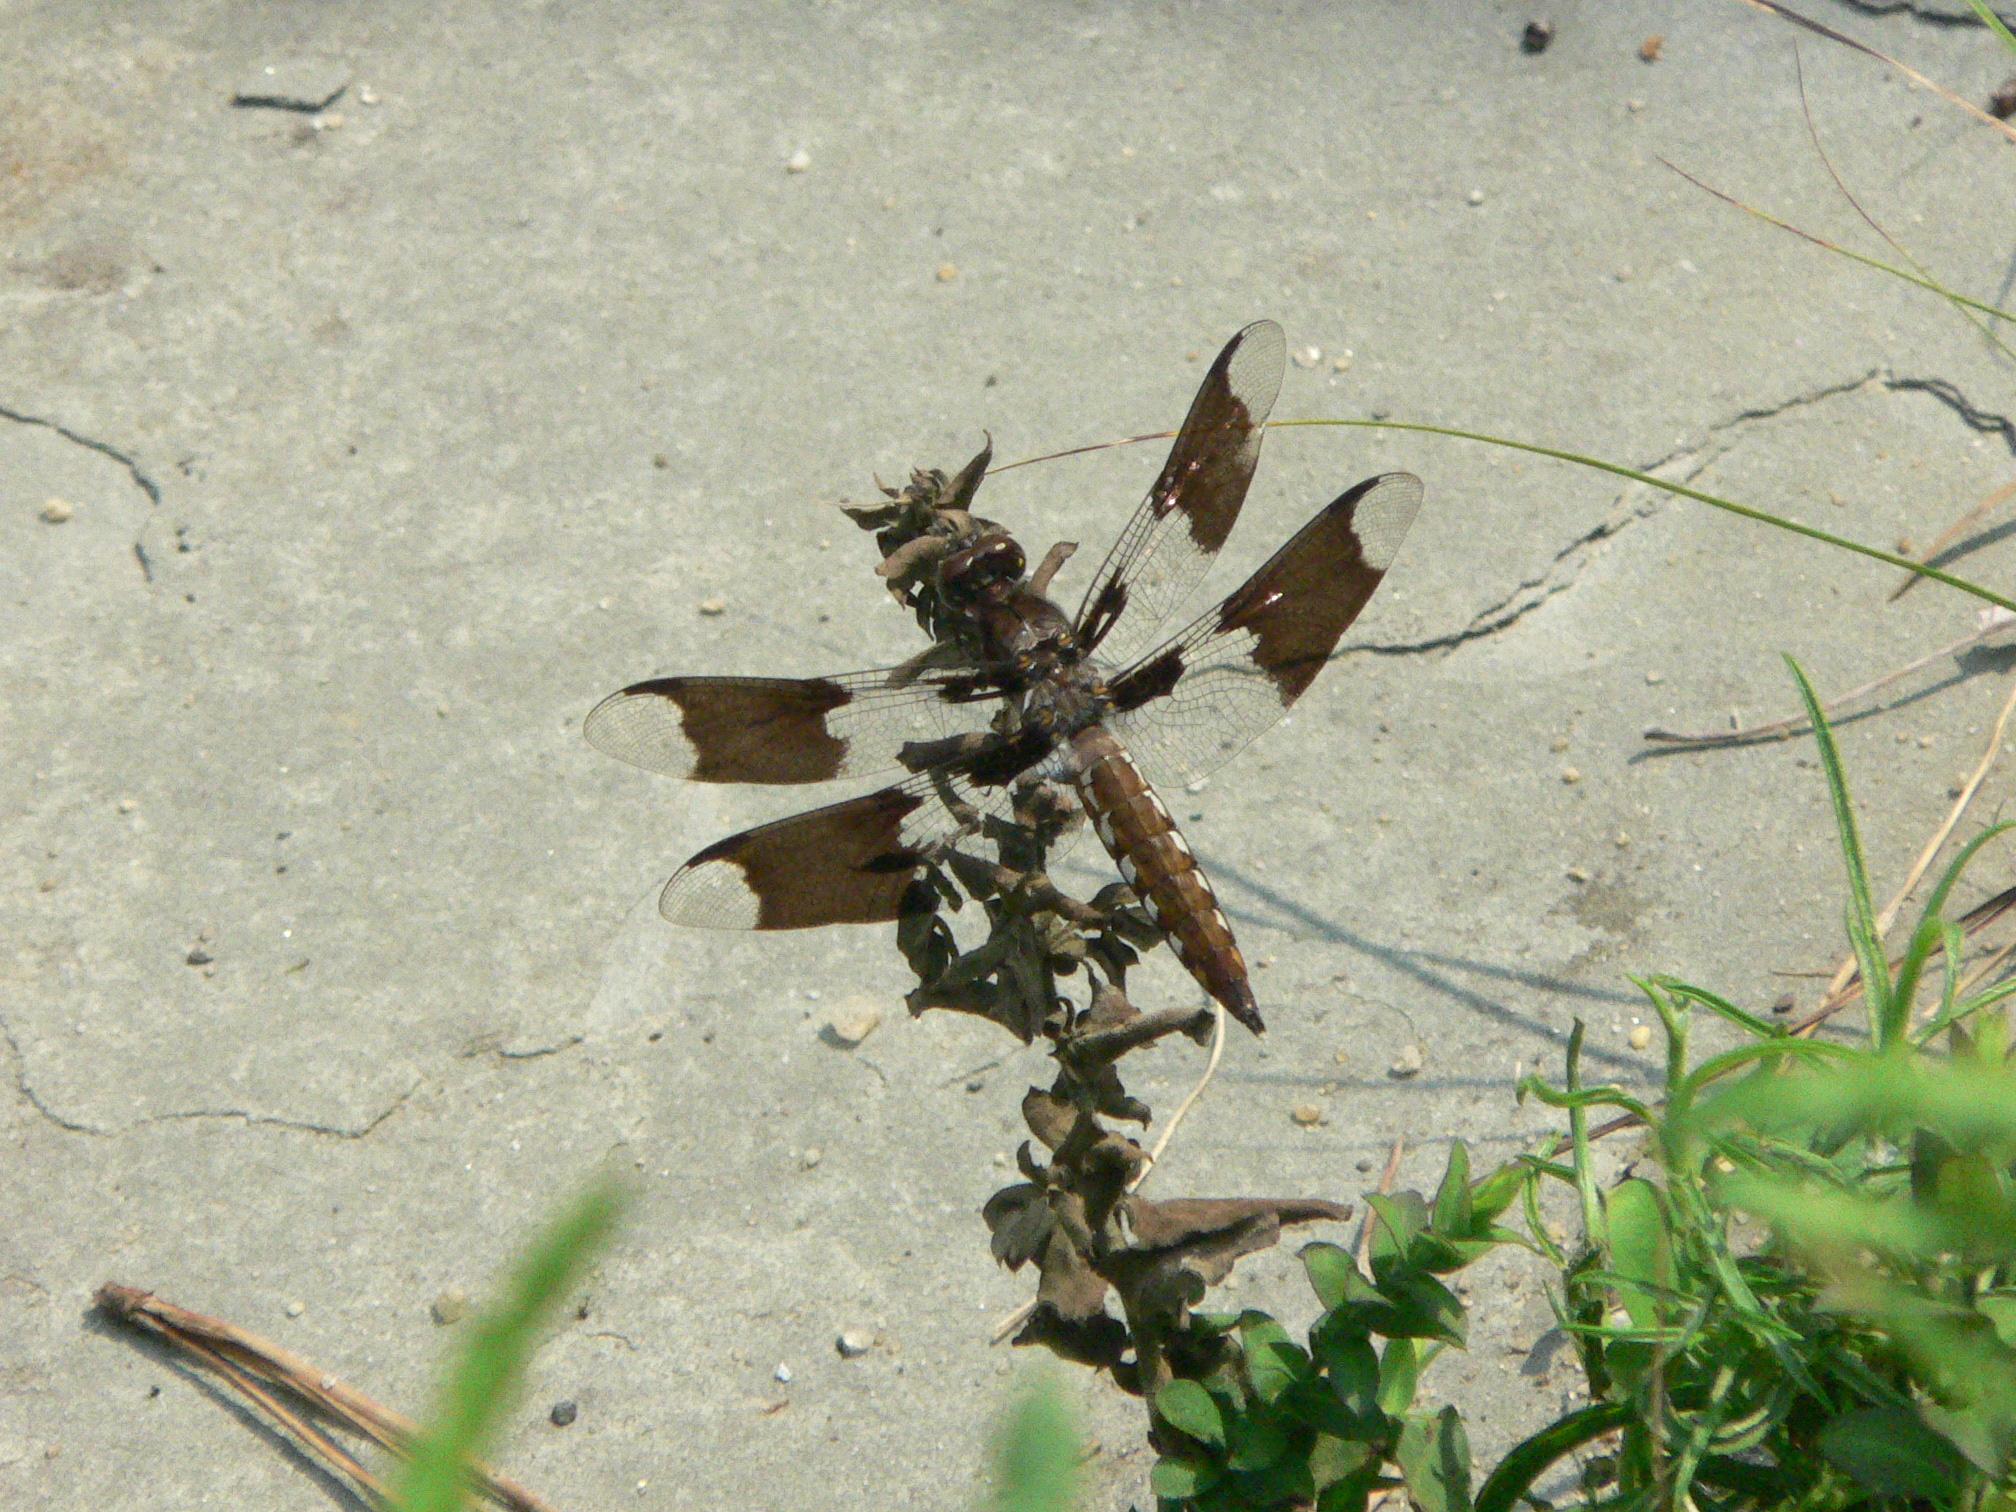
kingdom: Animalia
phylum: Arthropoda
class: Insecta
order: Odonata
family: Libellulidae
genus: Plathemis
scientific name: Plathemis lydia
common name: Common whitetail
